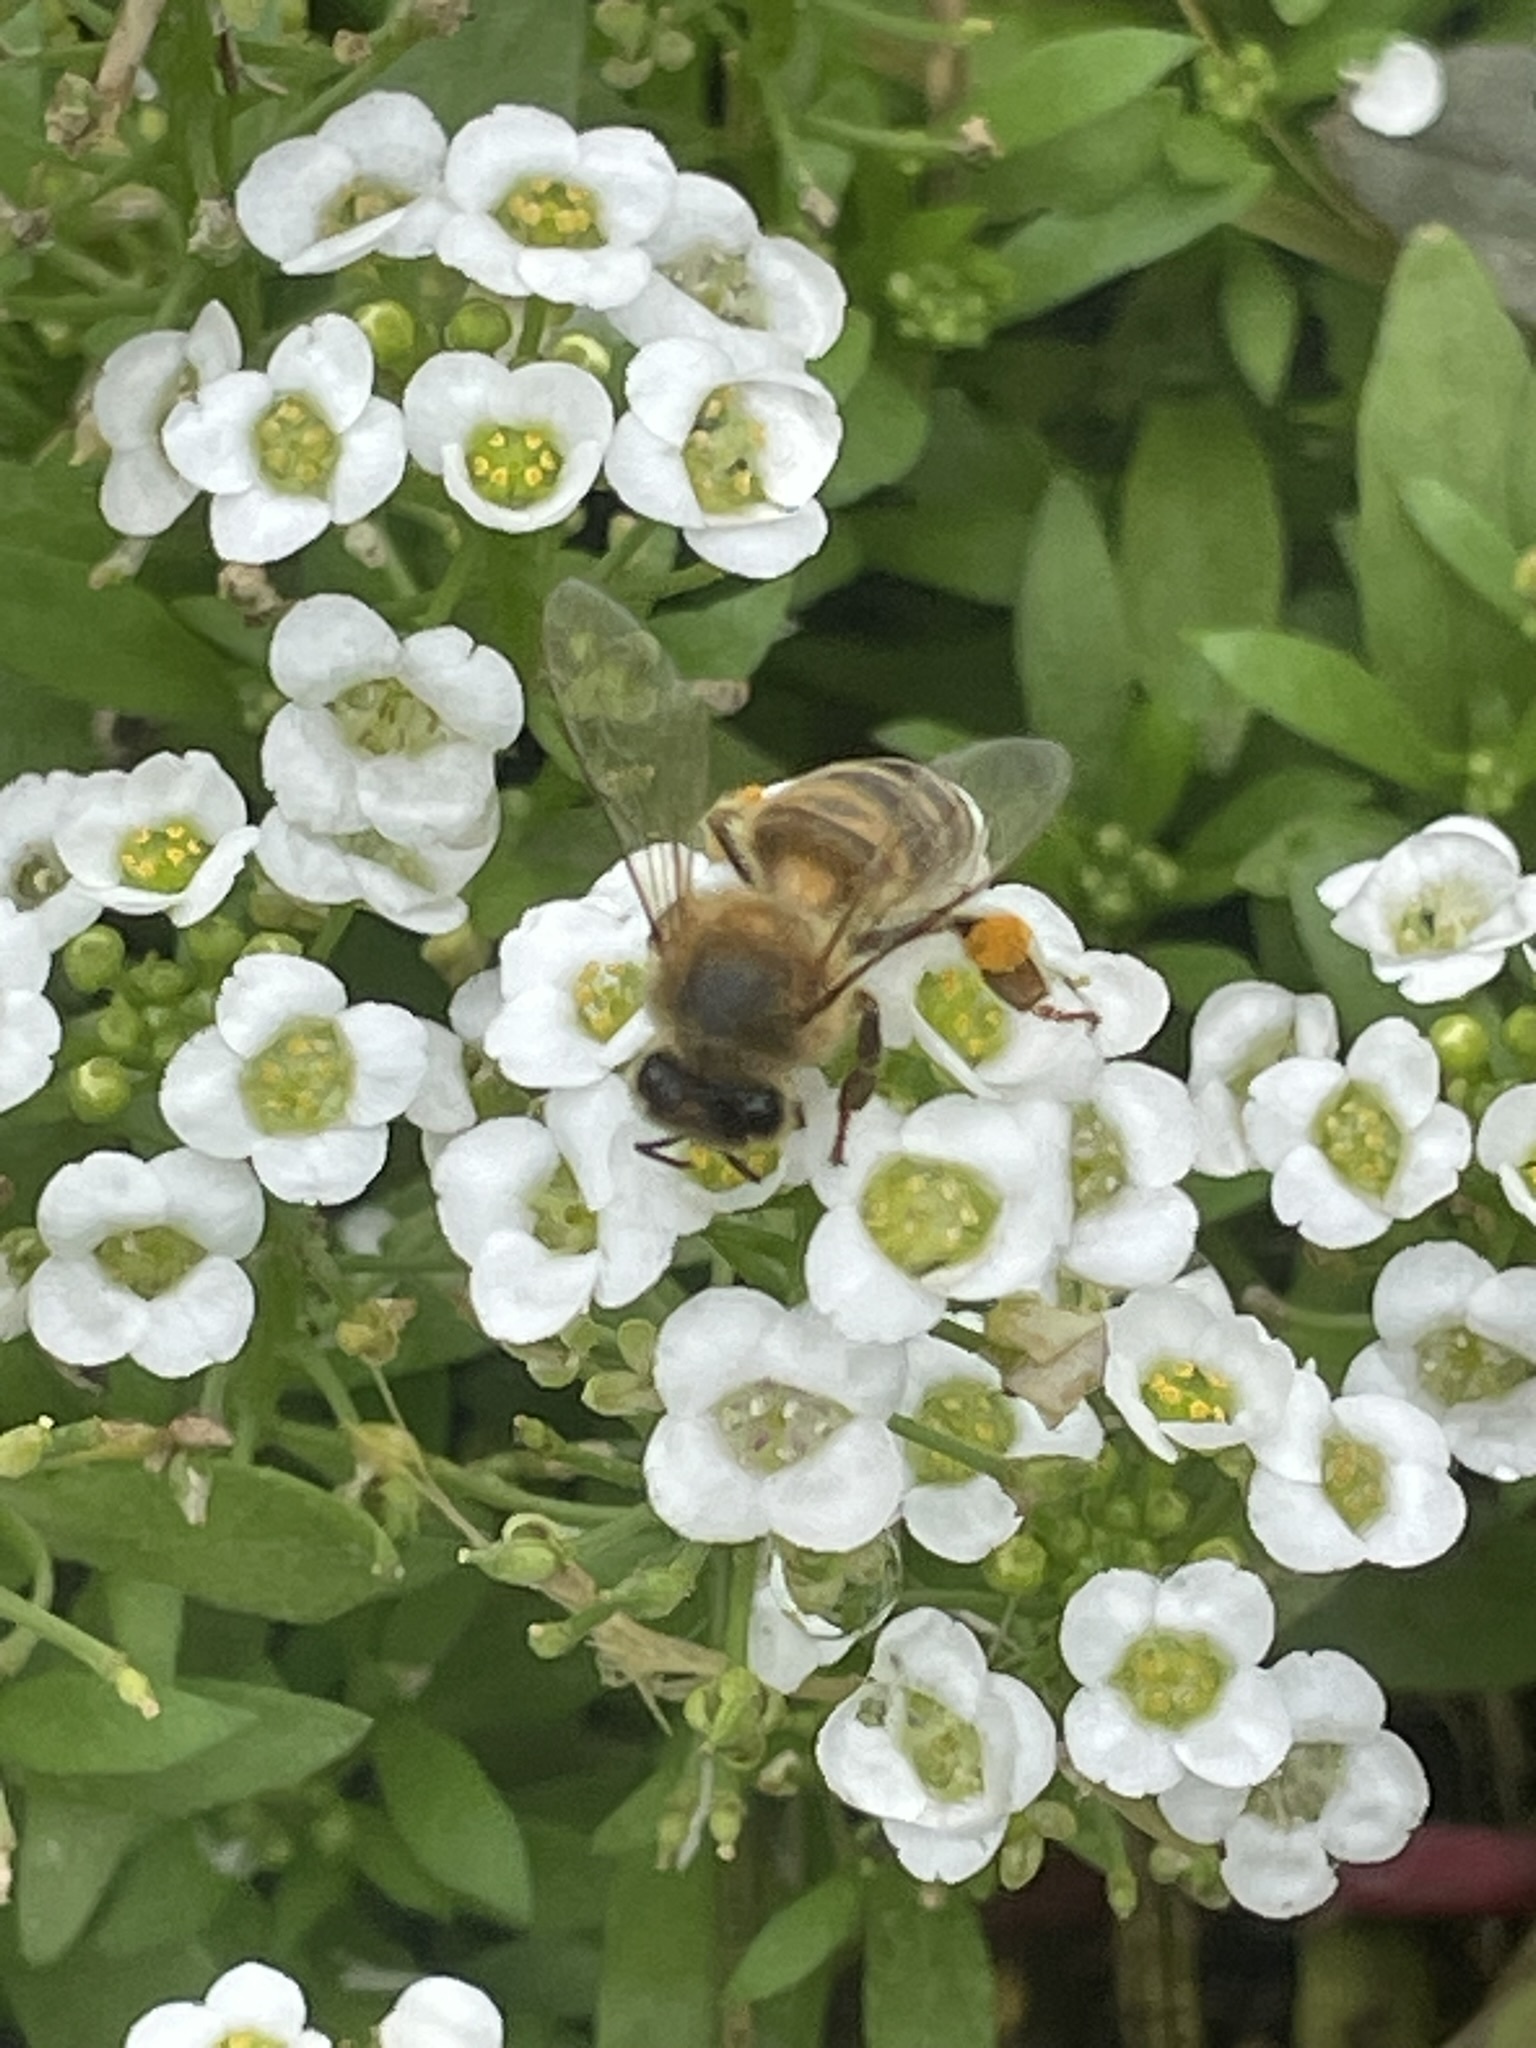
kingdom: Animalia
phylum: Arthropoda
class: Insecta
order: Hymenoptera
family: Apidae
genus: Apis
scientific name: Apis mellifera
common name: Honey bee
